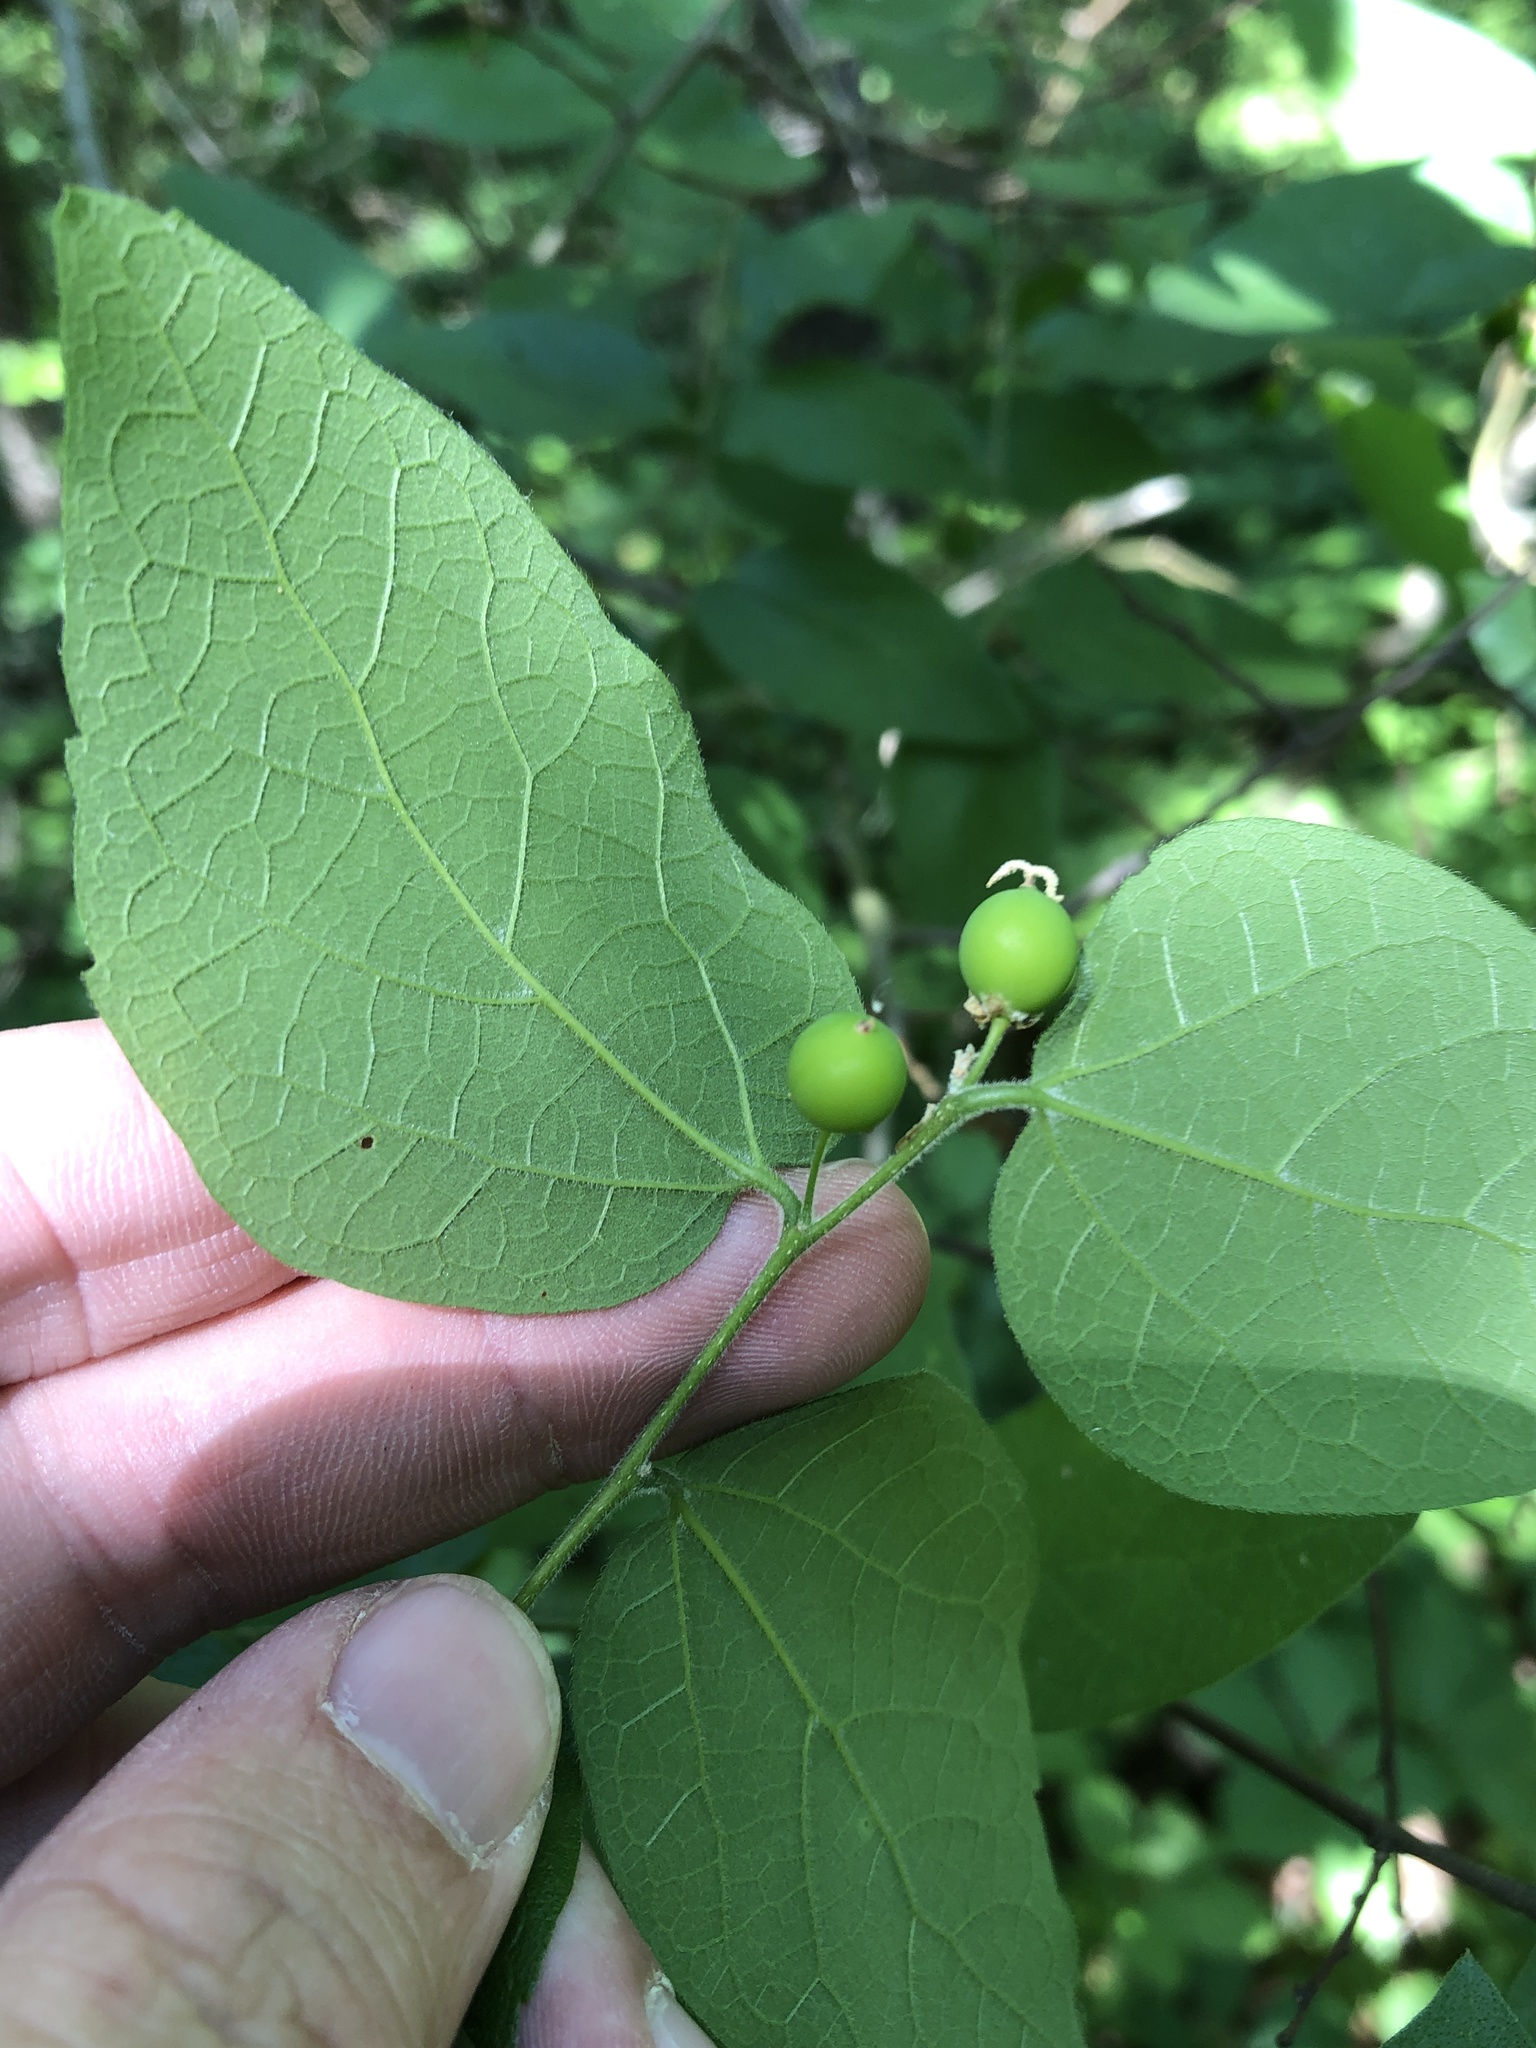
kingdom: Plantae
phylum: Tracheophyta
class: Magnoliopsida
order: Rosales
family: Cannabaceae
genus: Celtis
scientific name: Celtis reticulata
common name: Netleaf hackberry
